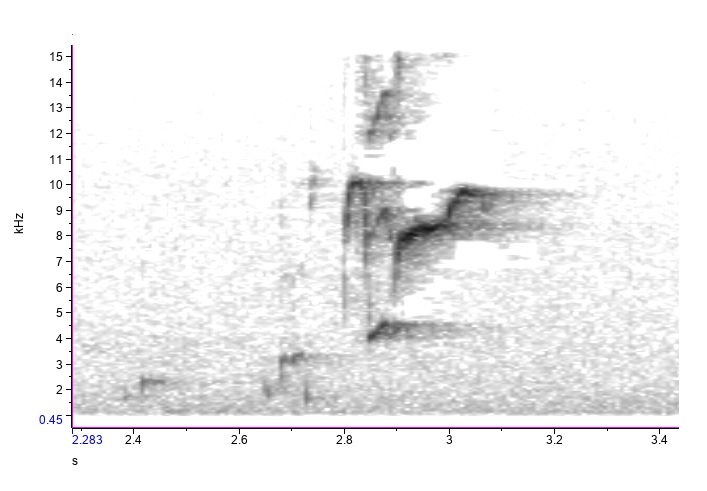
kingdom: Animalia
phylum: Chordata
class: Aves
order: Passeriformes
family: Icteridae
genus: Molothrus
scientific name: Molothrus ater
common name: Brown-headed cowbird
